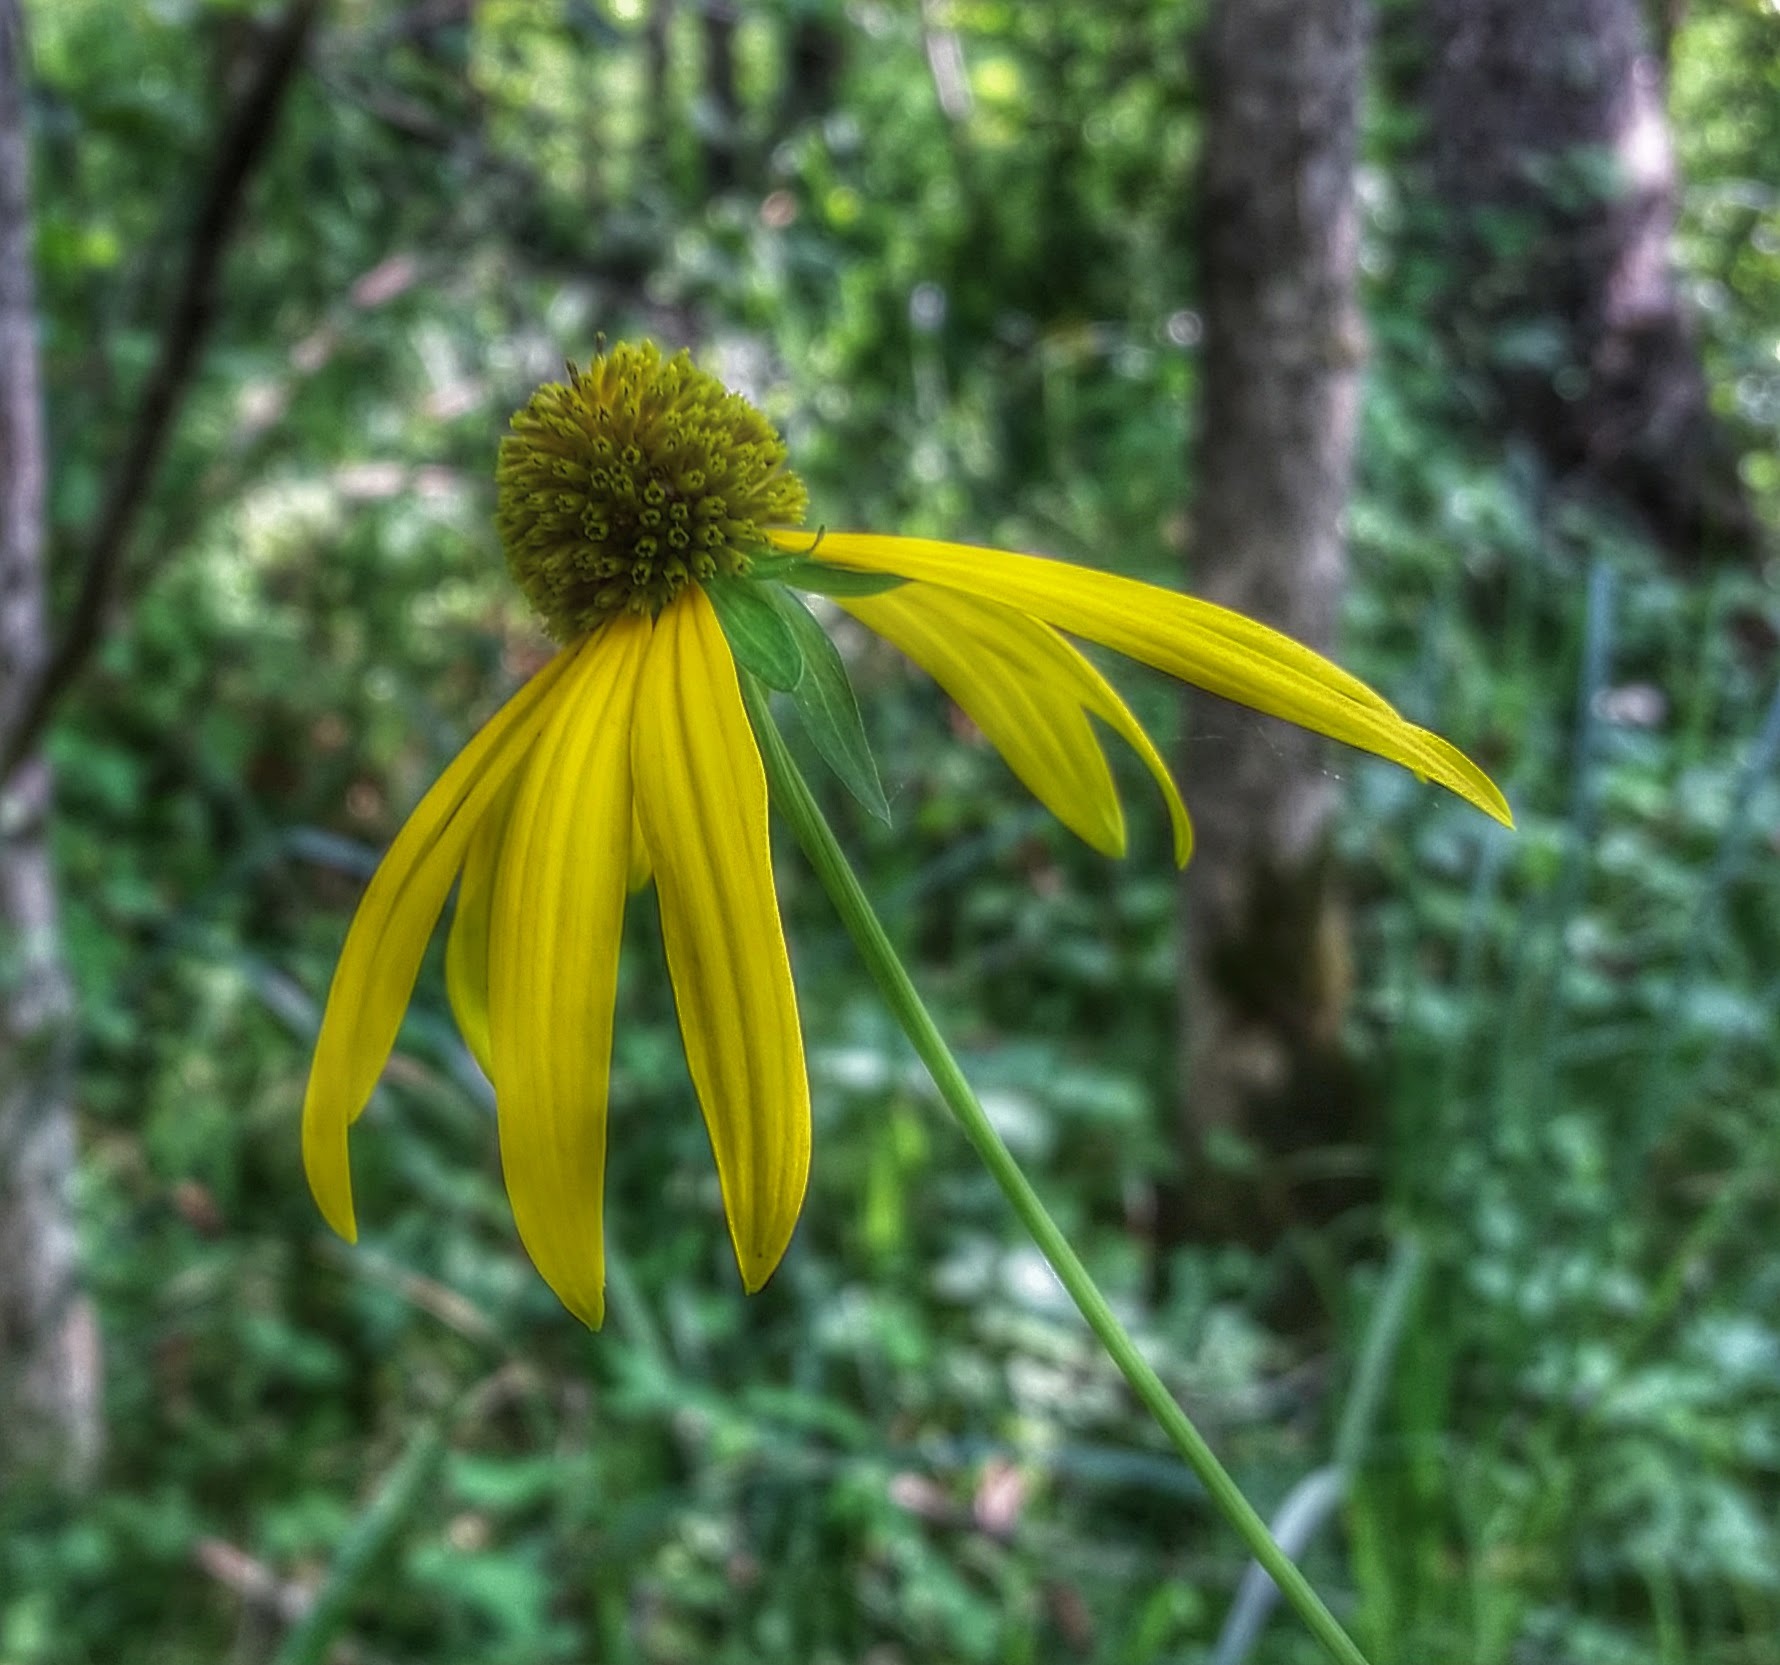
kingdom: Plantae
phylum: Tracheophyta
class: Magnoliopsida
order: Asterales
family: Asteraceae
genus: Rudbeckia
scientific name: Rudbeckia laciniata
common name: Coneflower
